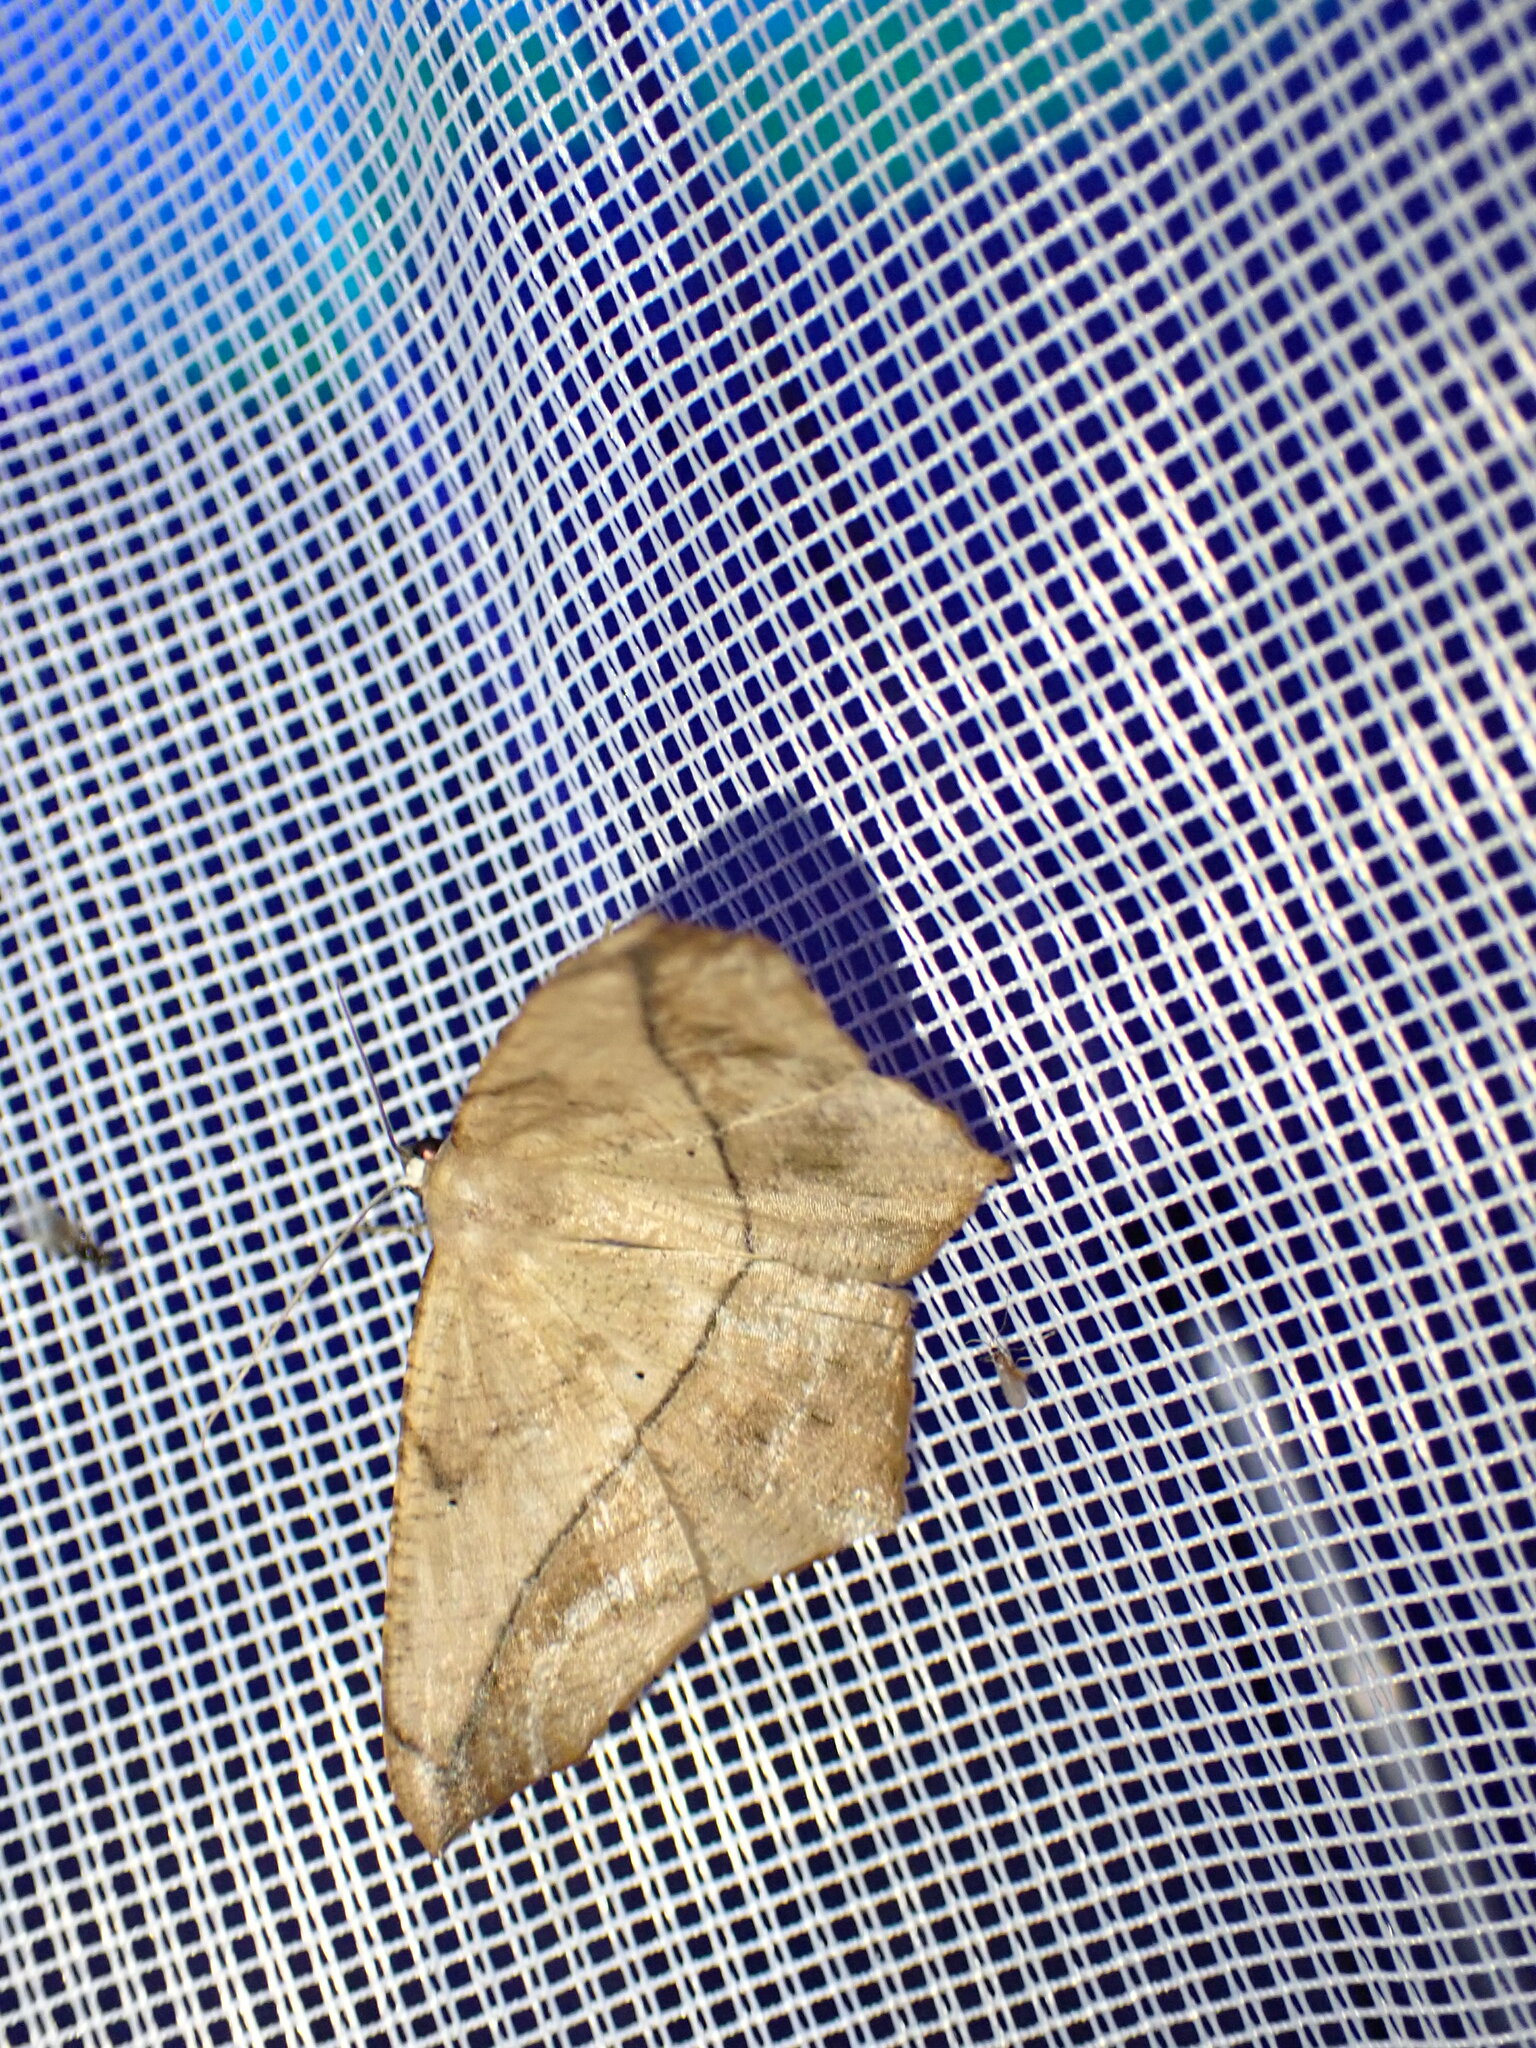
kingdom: Animalia
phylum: Arthropoda
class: Insecta
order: Lepidoptera
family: Geometridae
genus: Prochoerodes
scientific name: Prochoerodes lineola
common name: Large maple spanworm
